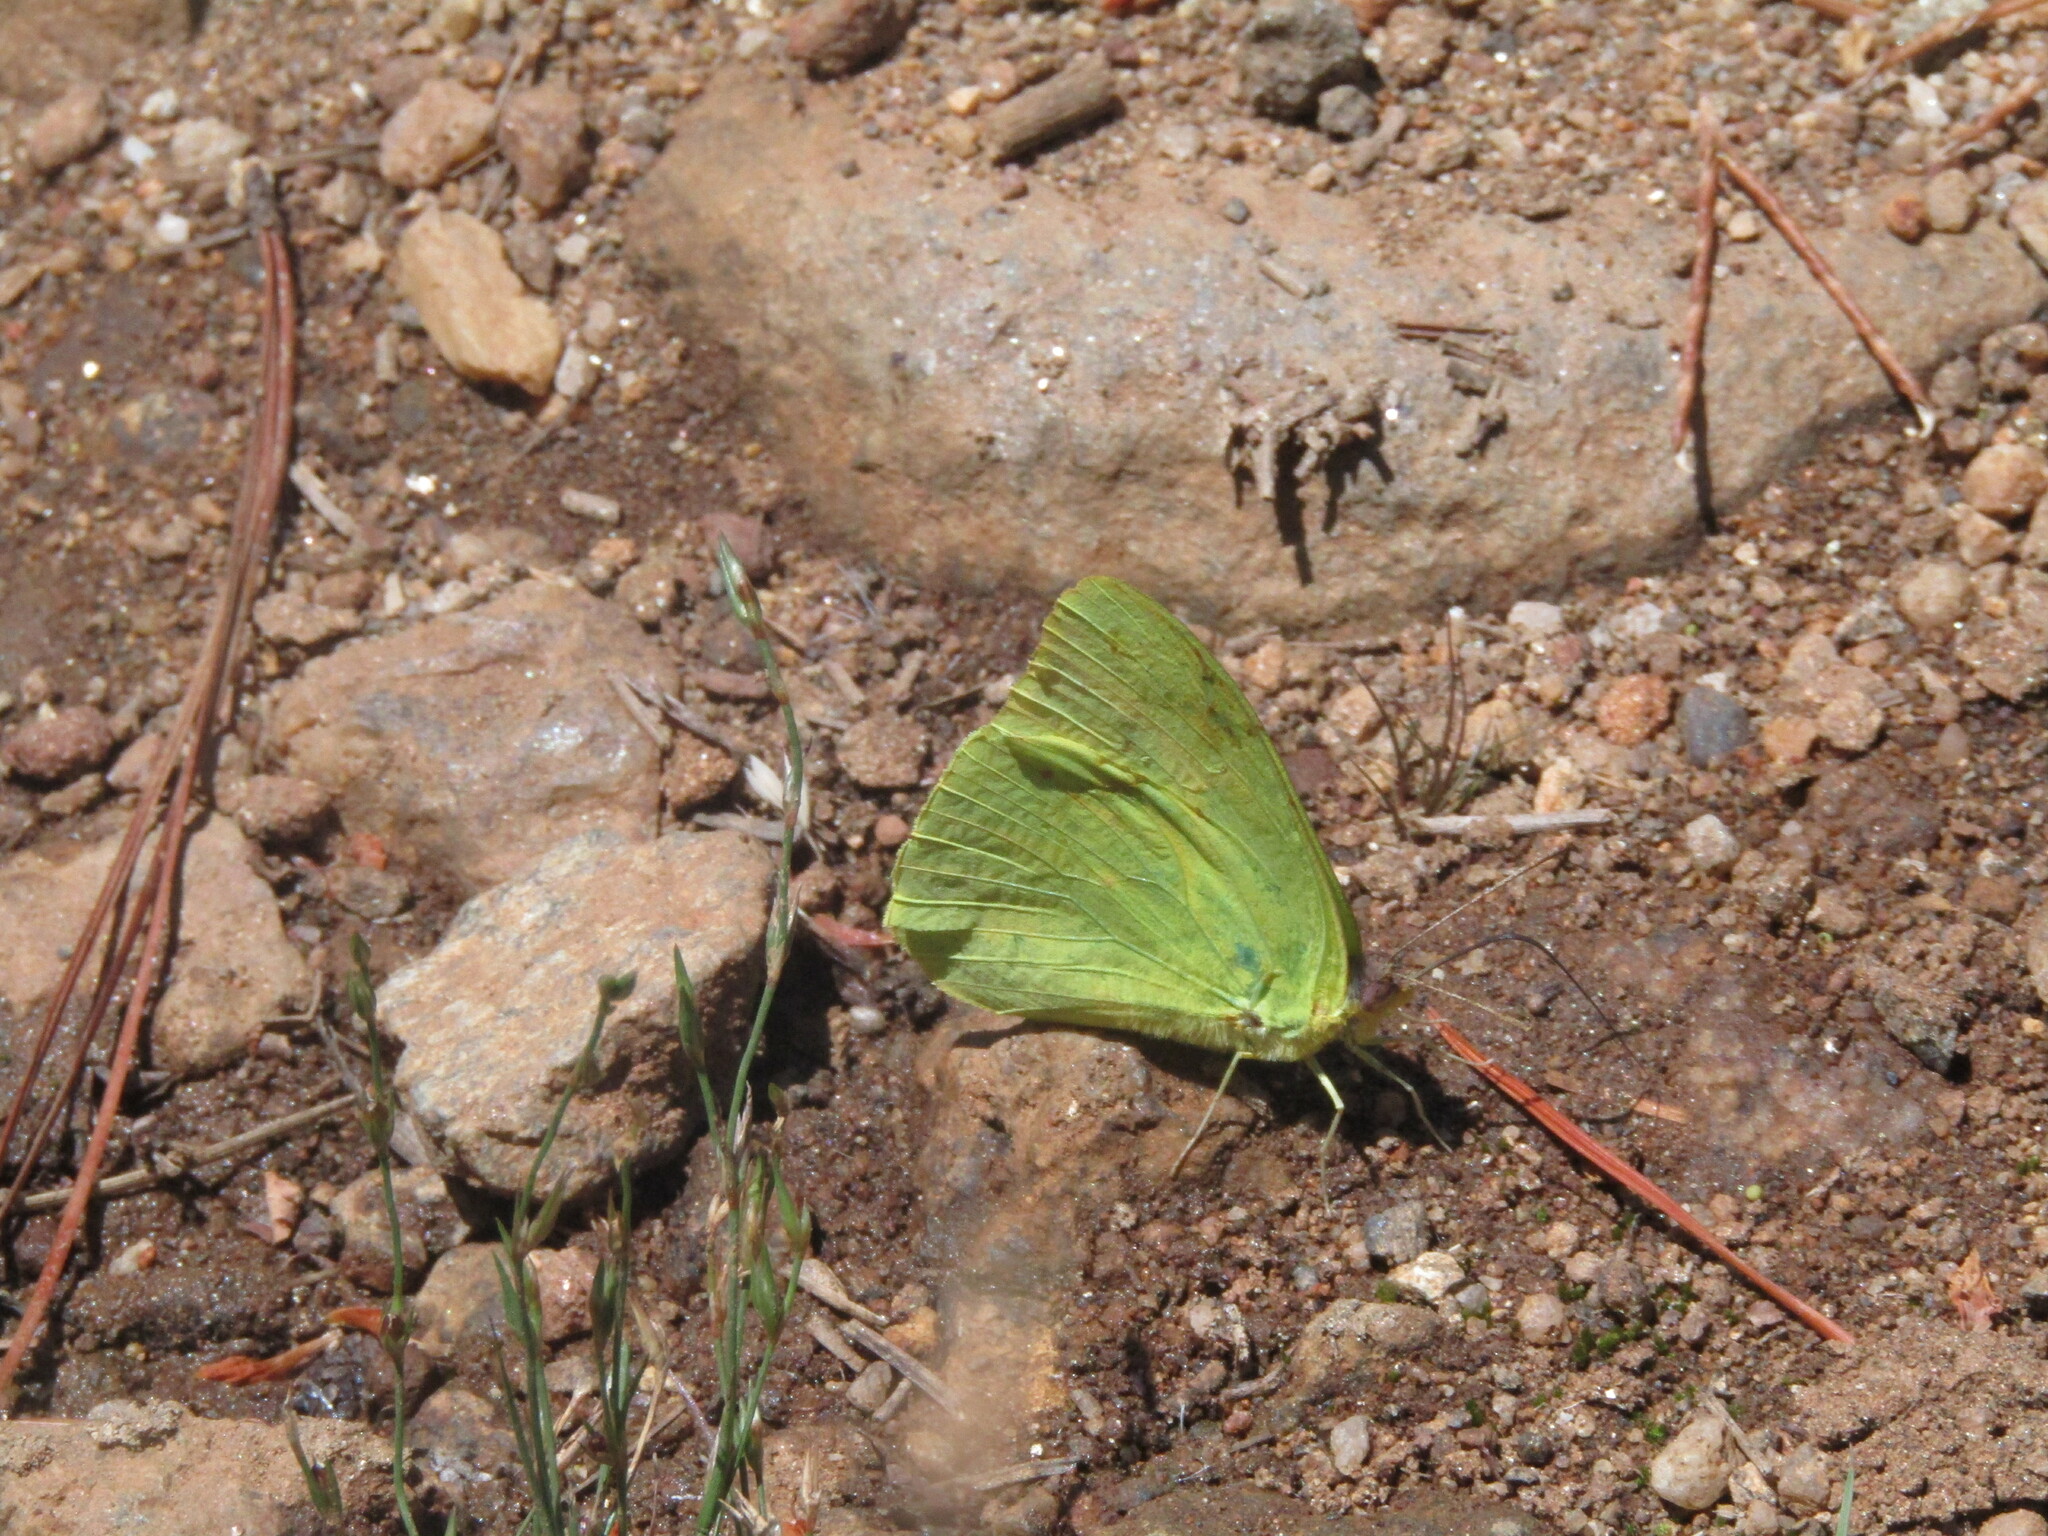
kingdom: Animalia
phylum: Arthropoda
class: Insecta
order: Lepidoptera
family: Pieridae
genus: Phoebis
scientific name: Phoebis sennae
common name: Cloudless sulphur
